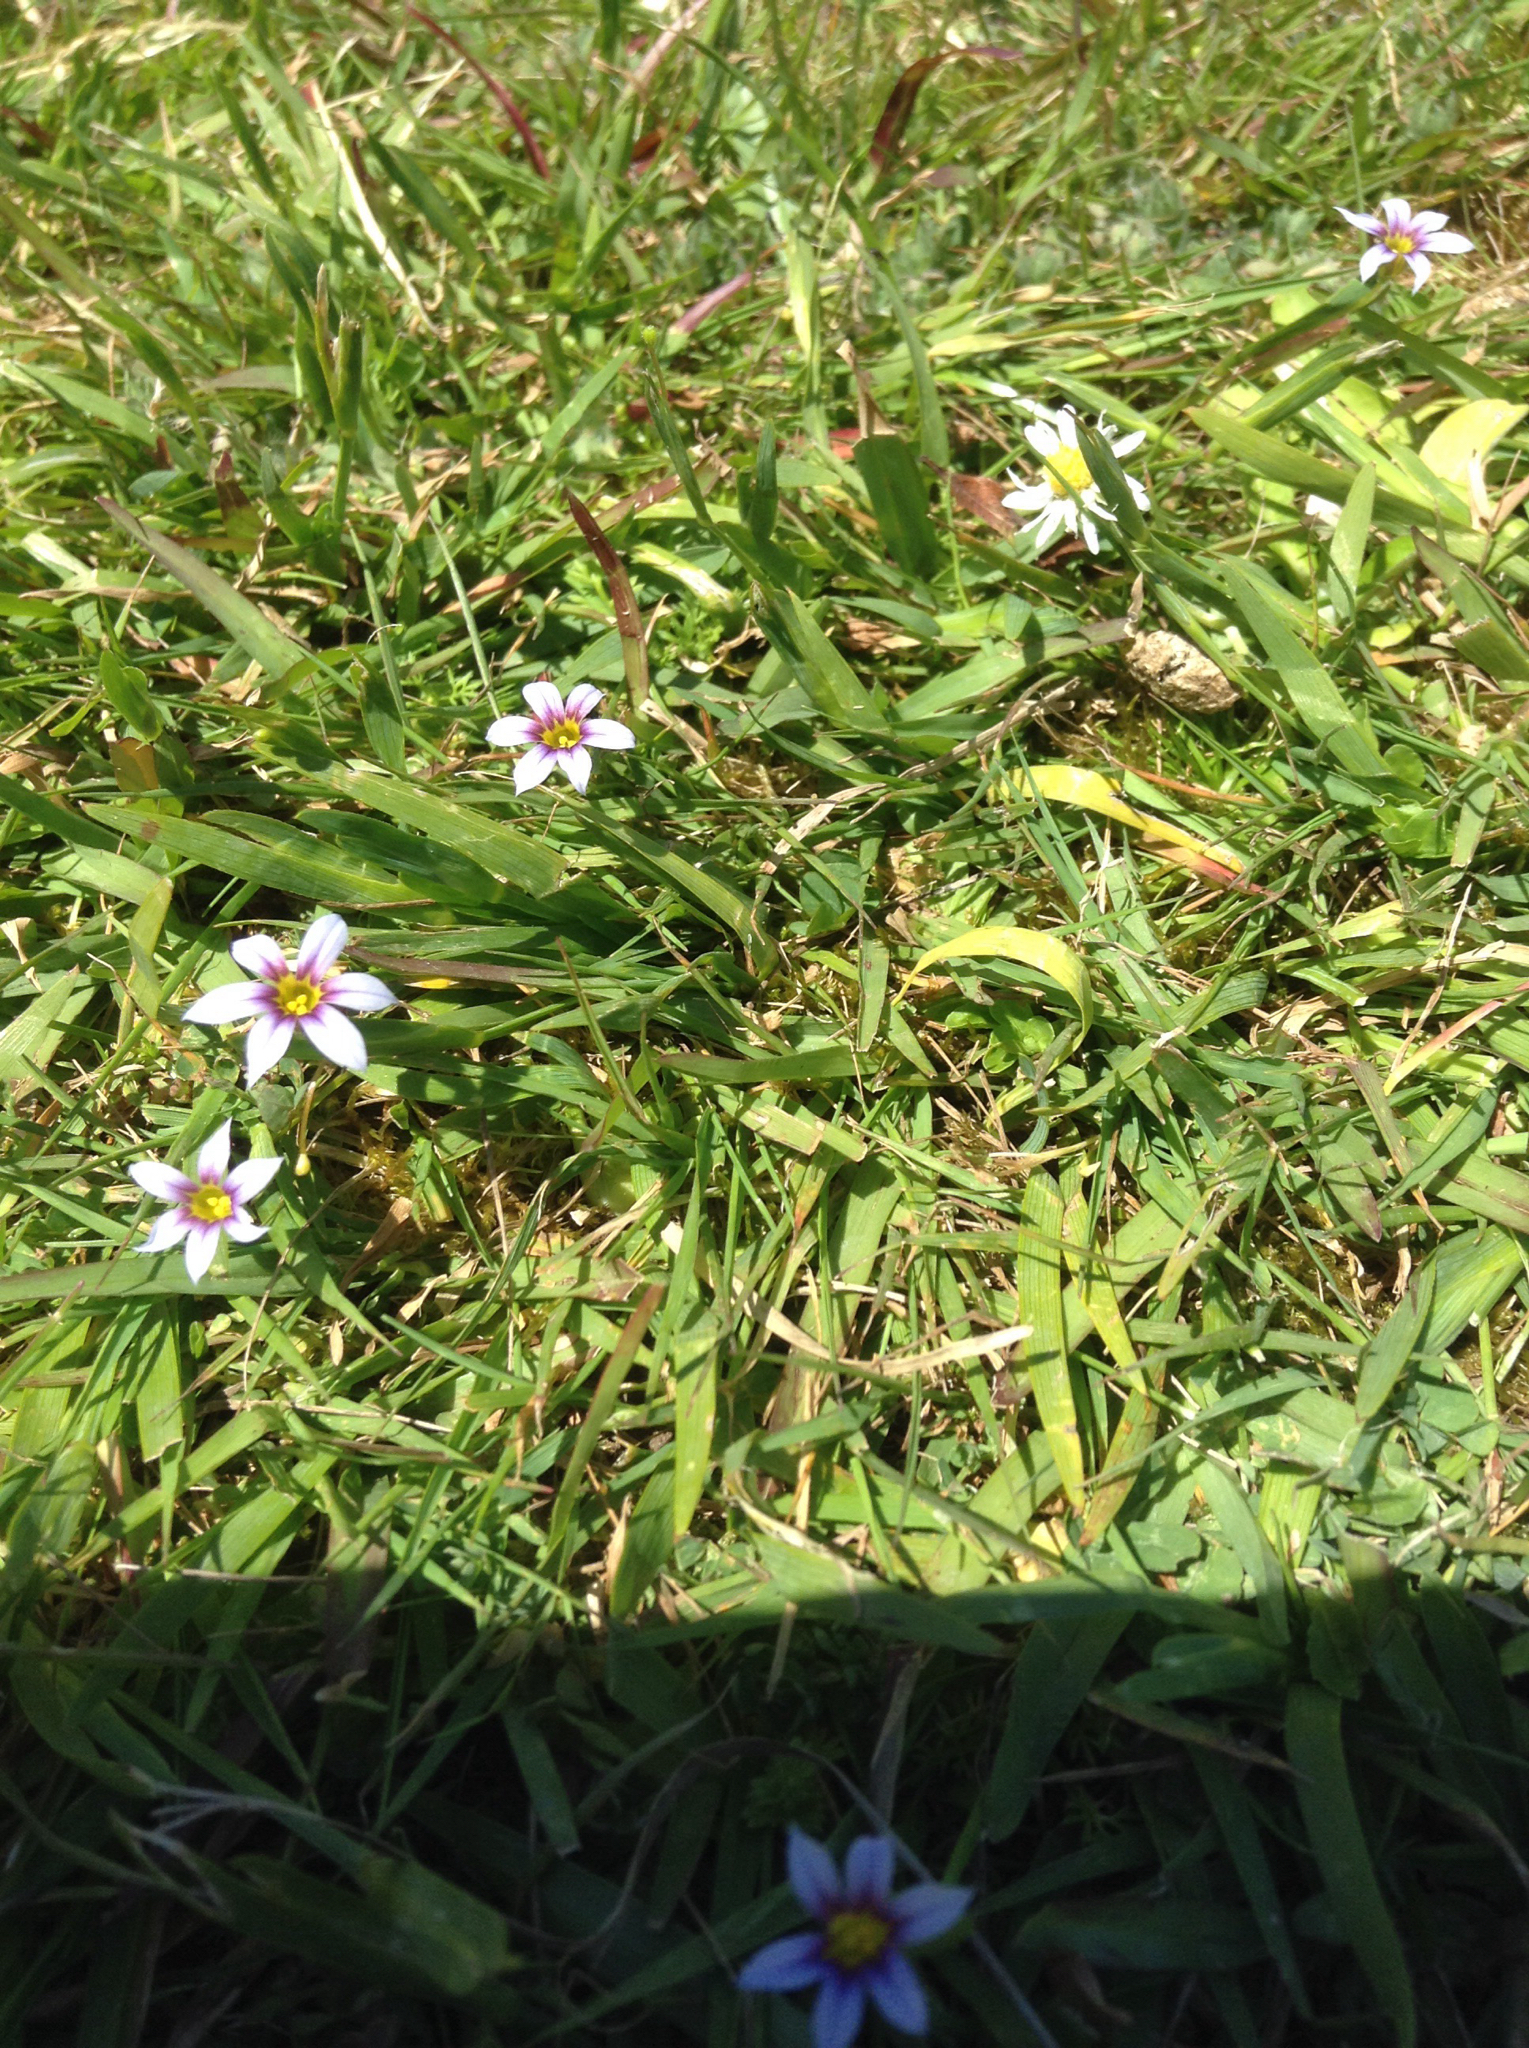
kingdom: Plantae
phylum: Tracheophyta
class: Liliopsida
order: Asparagales
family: Iridaceae
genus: Sisyrinchium
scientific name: Sisyrinchium micranthum
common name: Bermuda pigroot
